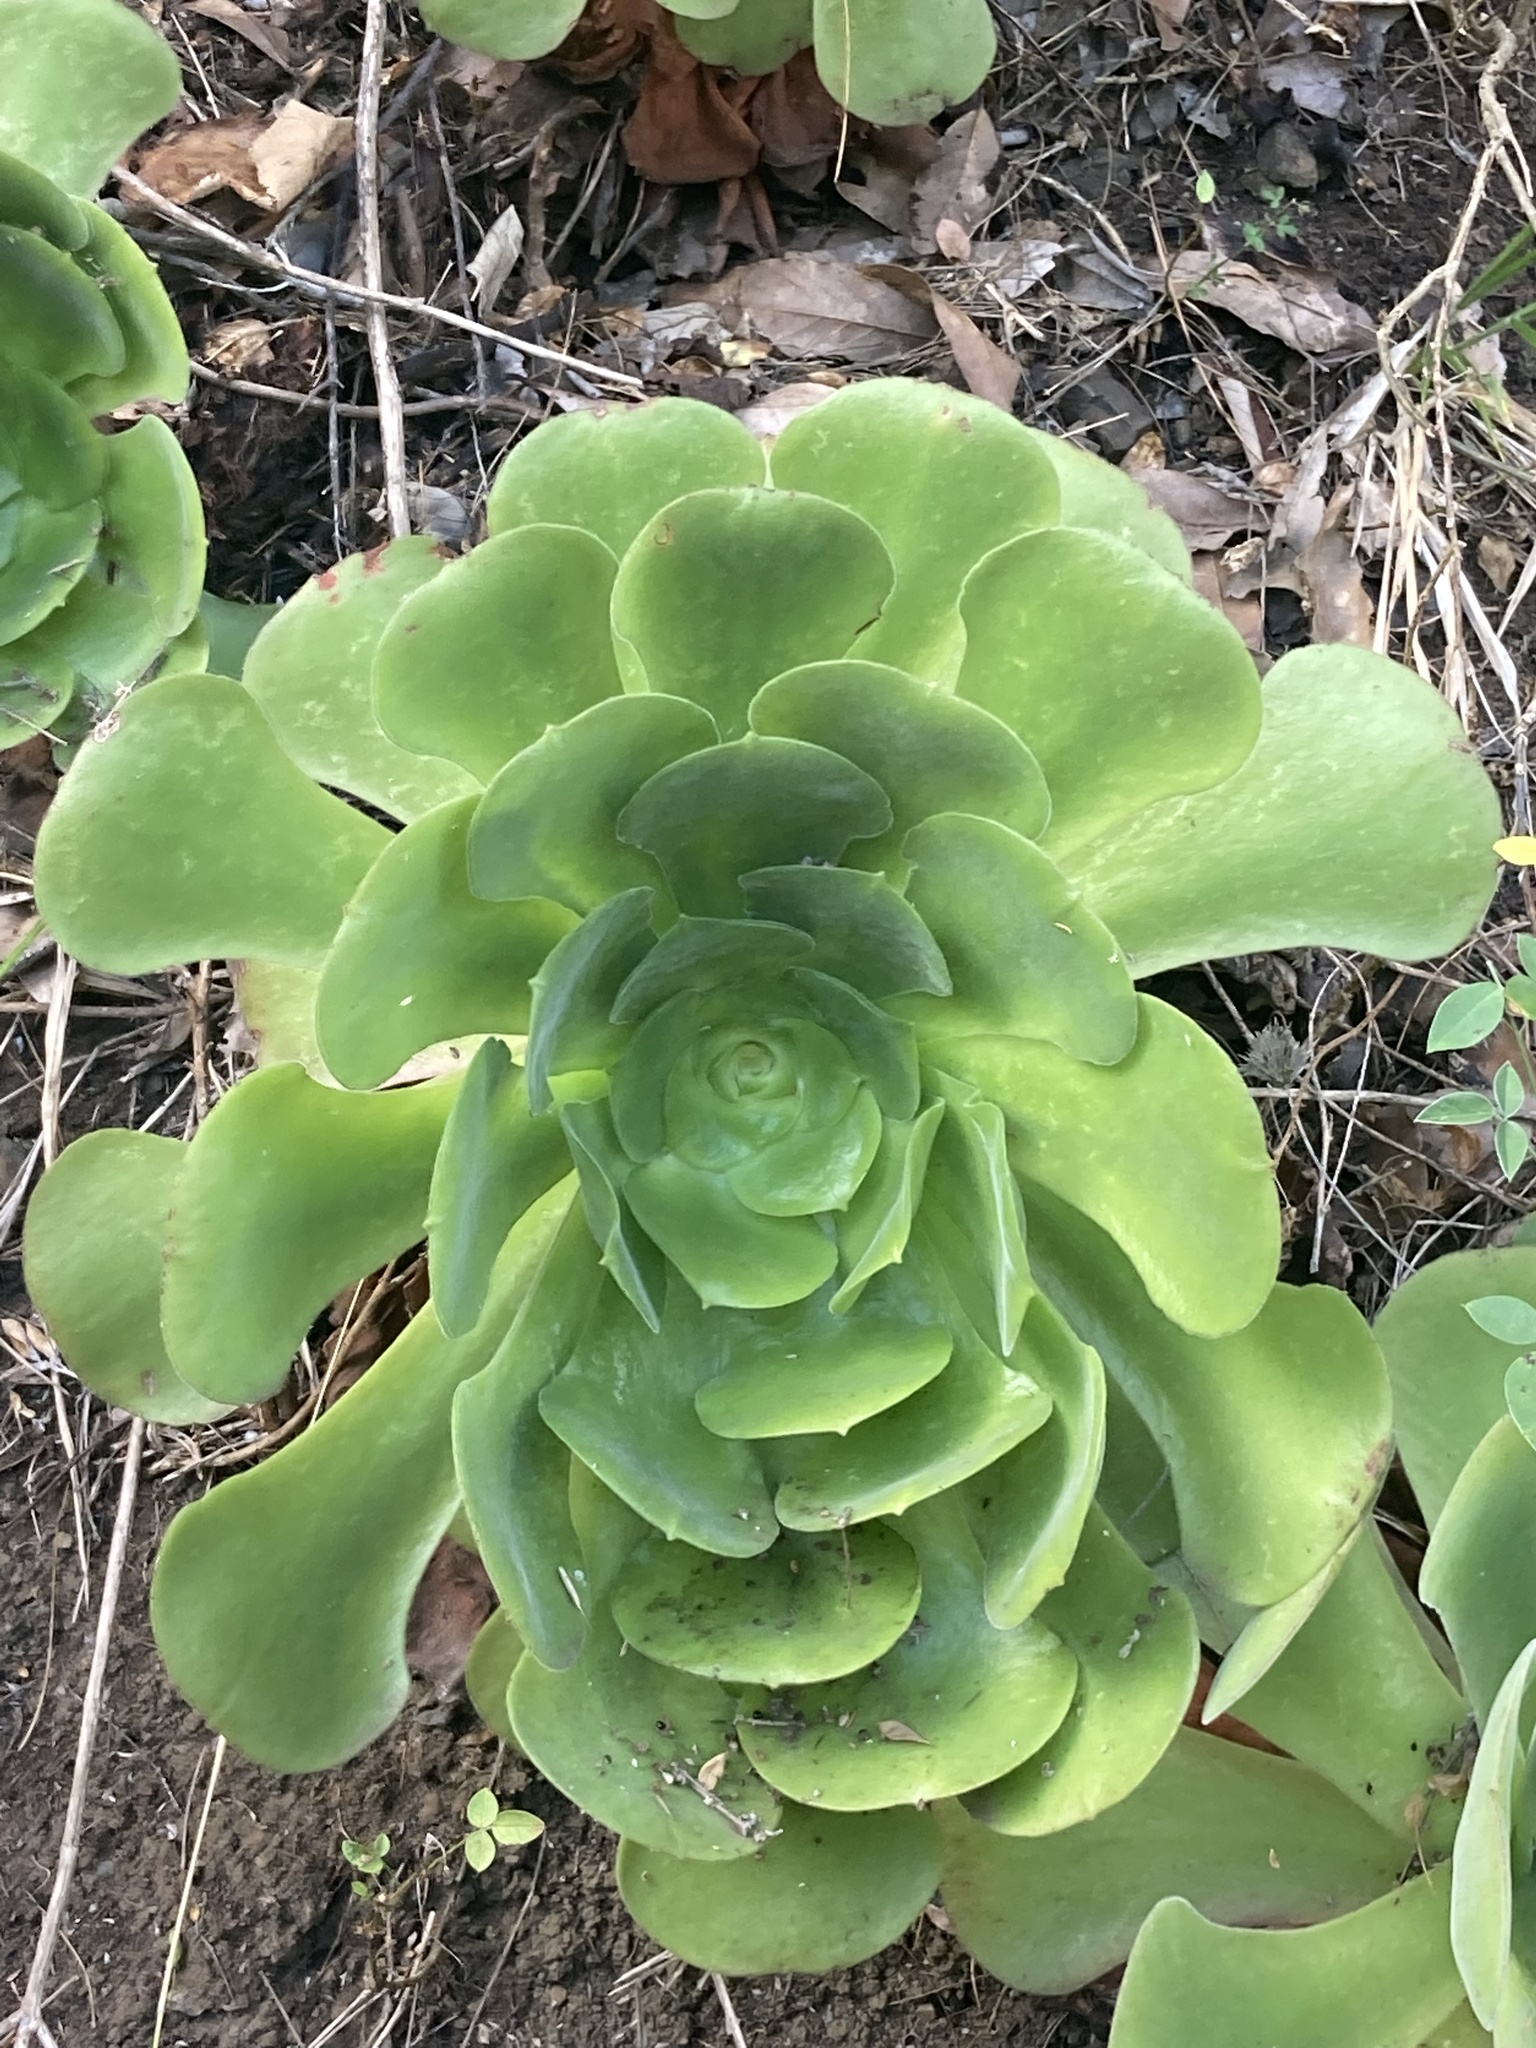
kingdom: Plantae
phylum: Tracheophyta
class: Magnoliopsida
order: Saxifragales
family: Crassulaceae
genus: Aeonium
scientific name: Aeonium canariense
